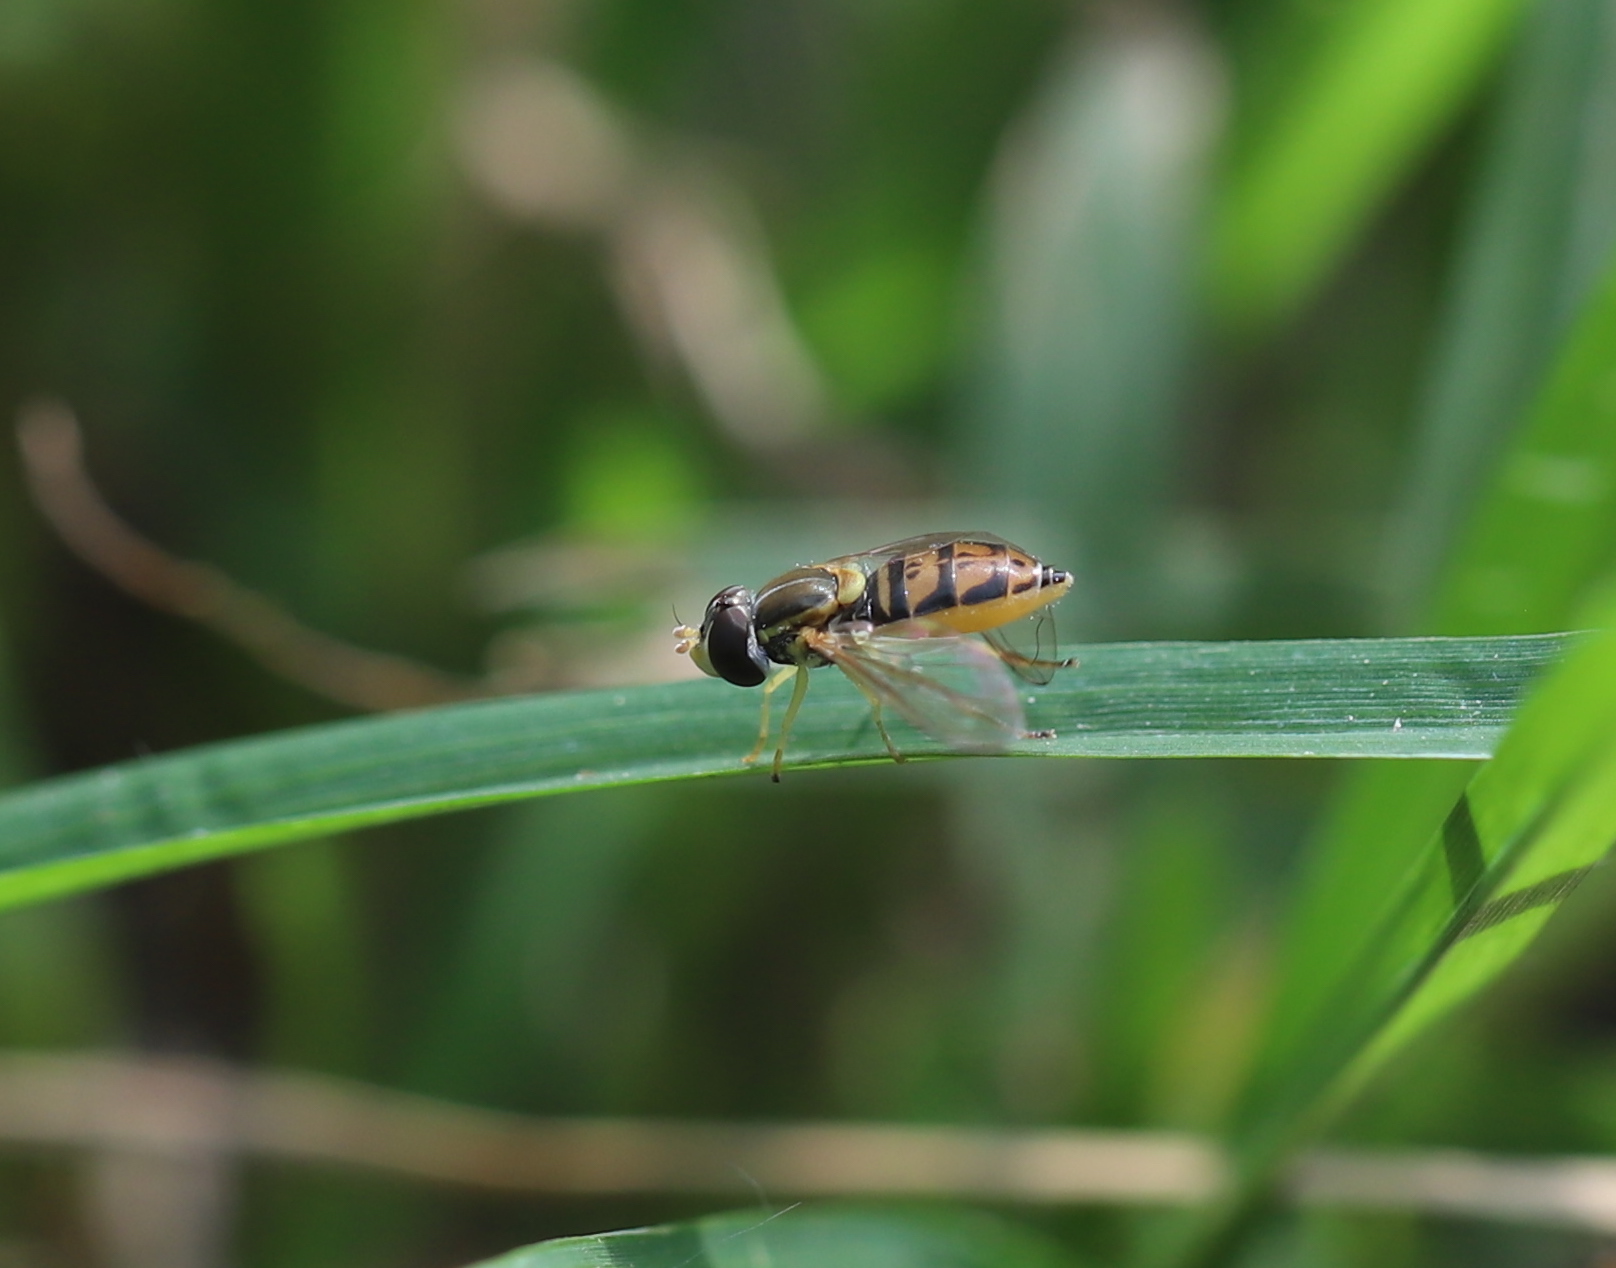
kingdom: Animalia
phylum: Arthropoda
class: Insecta
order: Diptera
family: Syrphidae
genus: Toxomerus
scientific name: Toxomerus marginatus
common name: Syrphid fly
